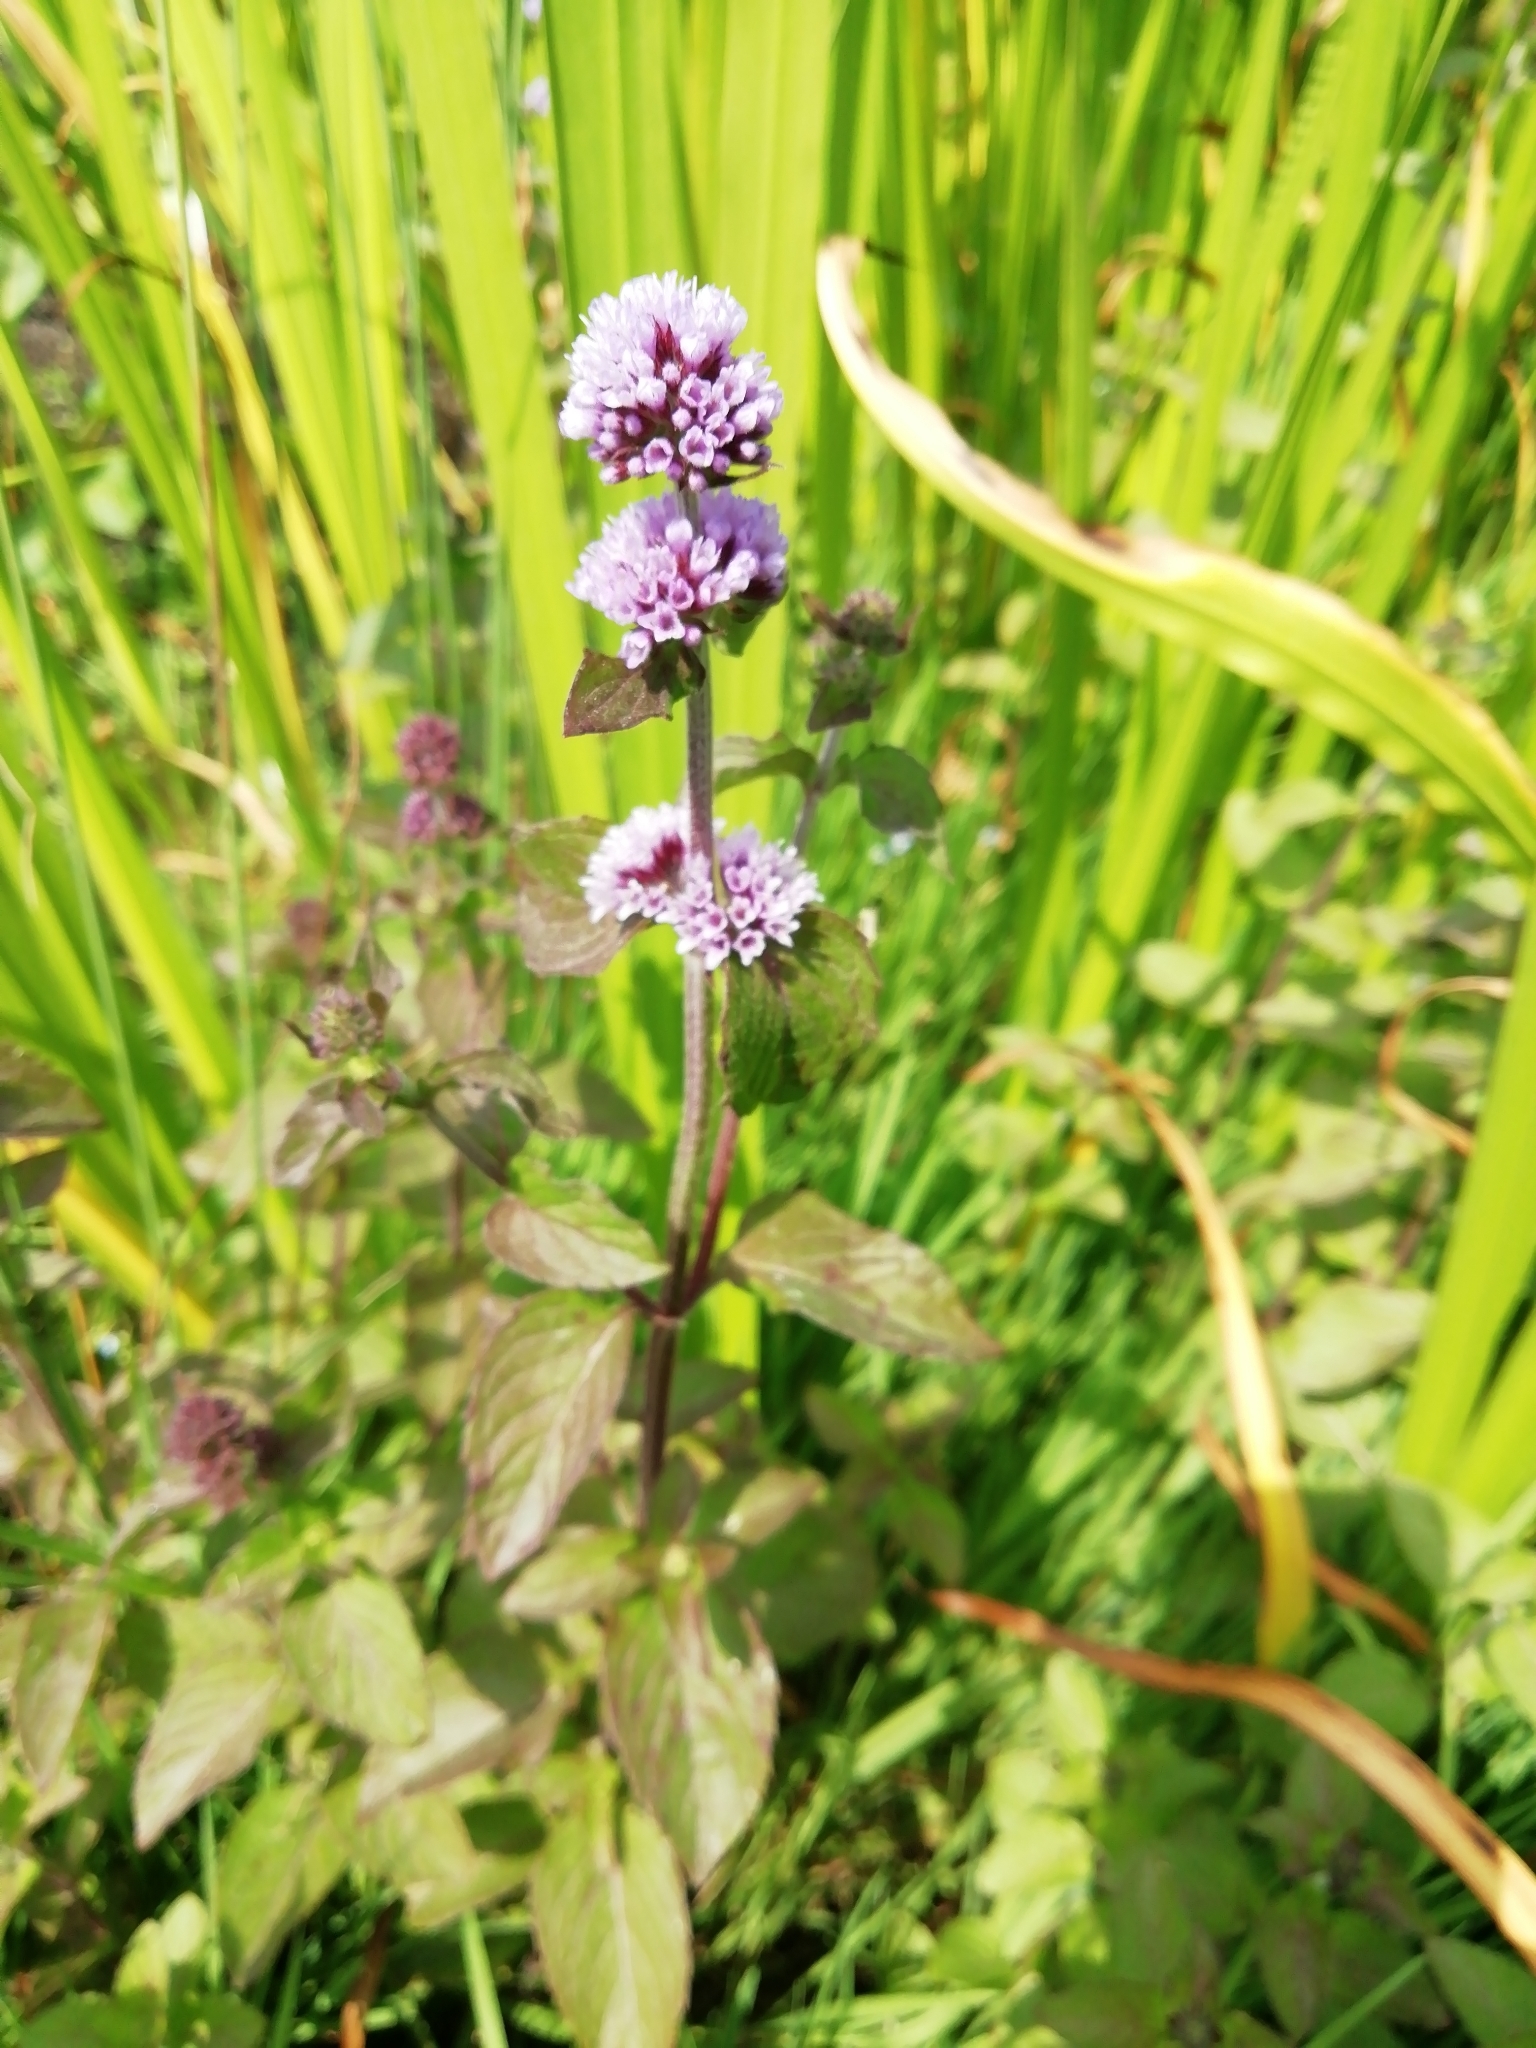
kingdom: Plantae
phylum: Tracheophyta
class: Magnoliopsida
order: Lamiales
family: Lamiaceae
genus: Mentha
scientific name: Mentha aquatica
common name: Water mint
